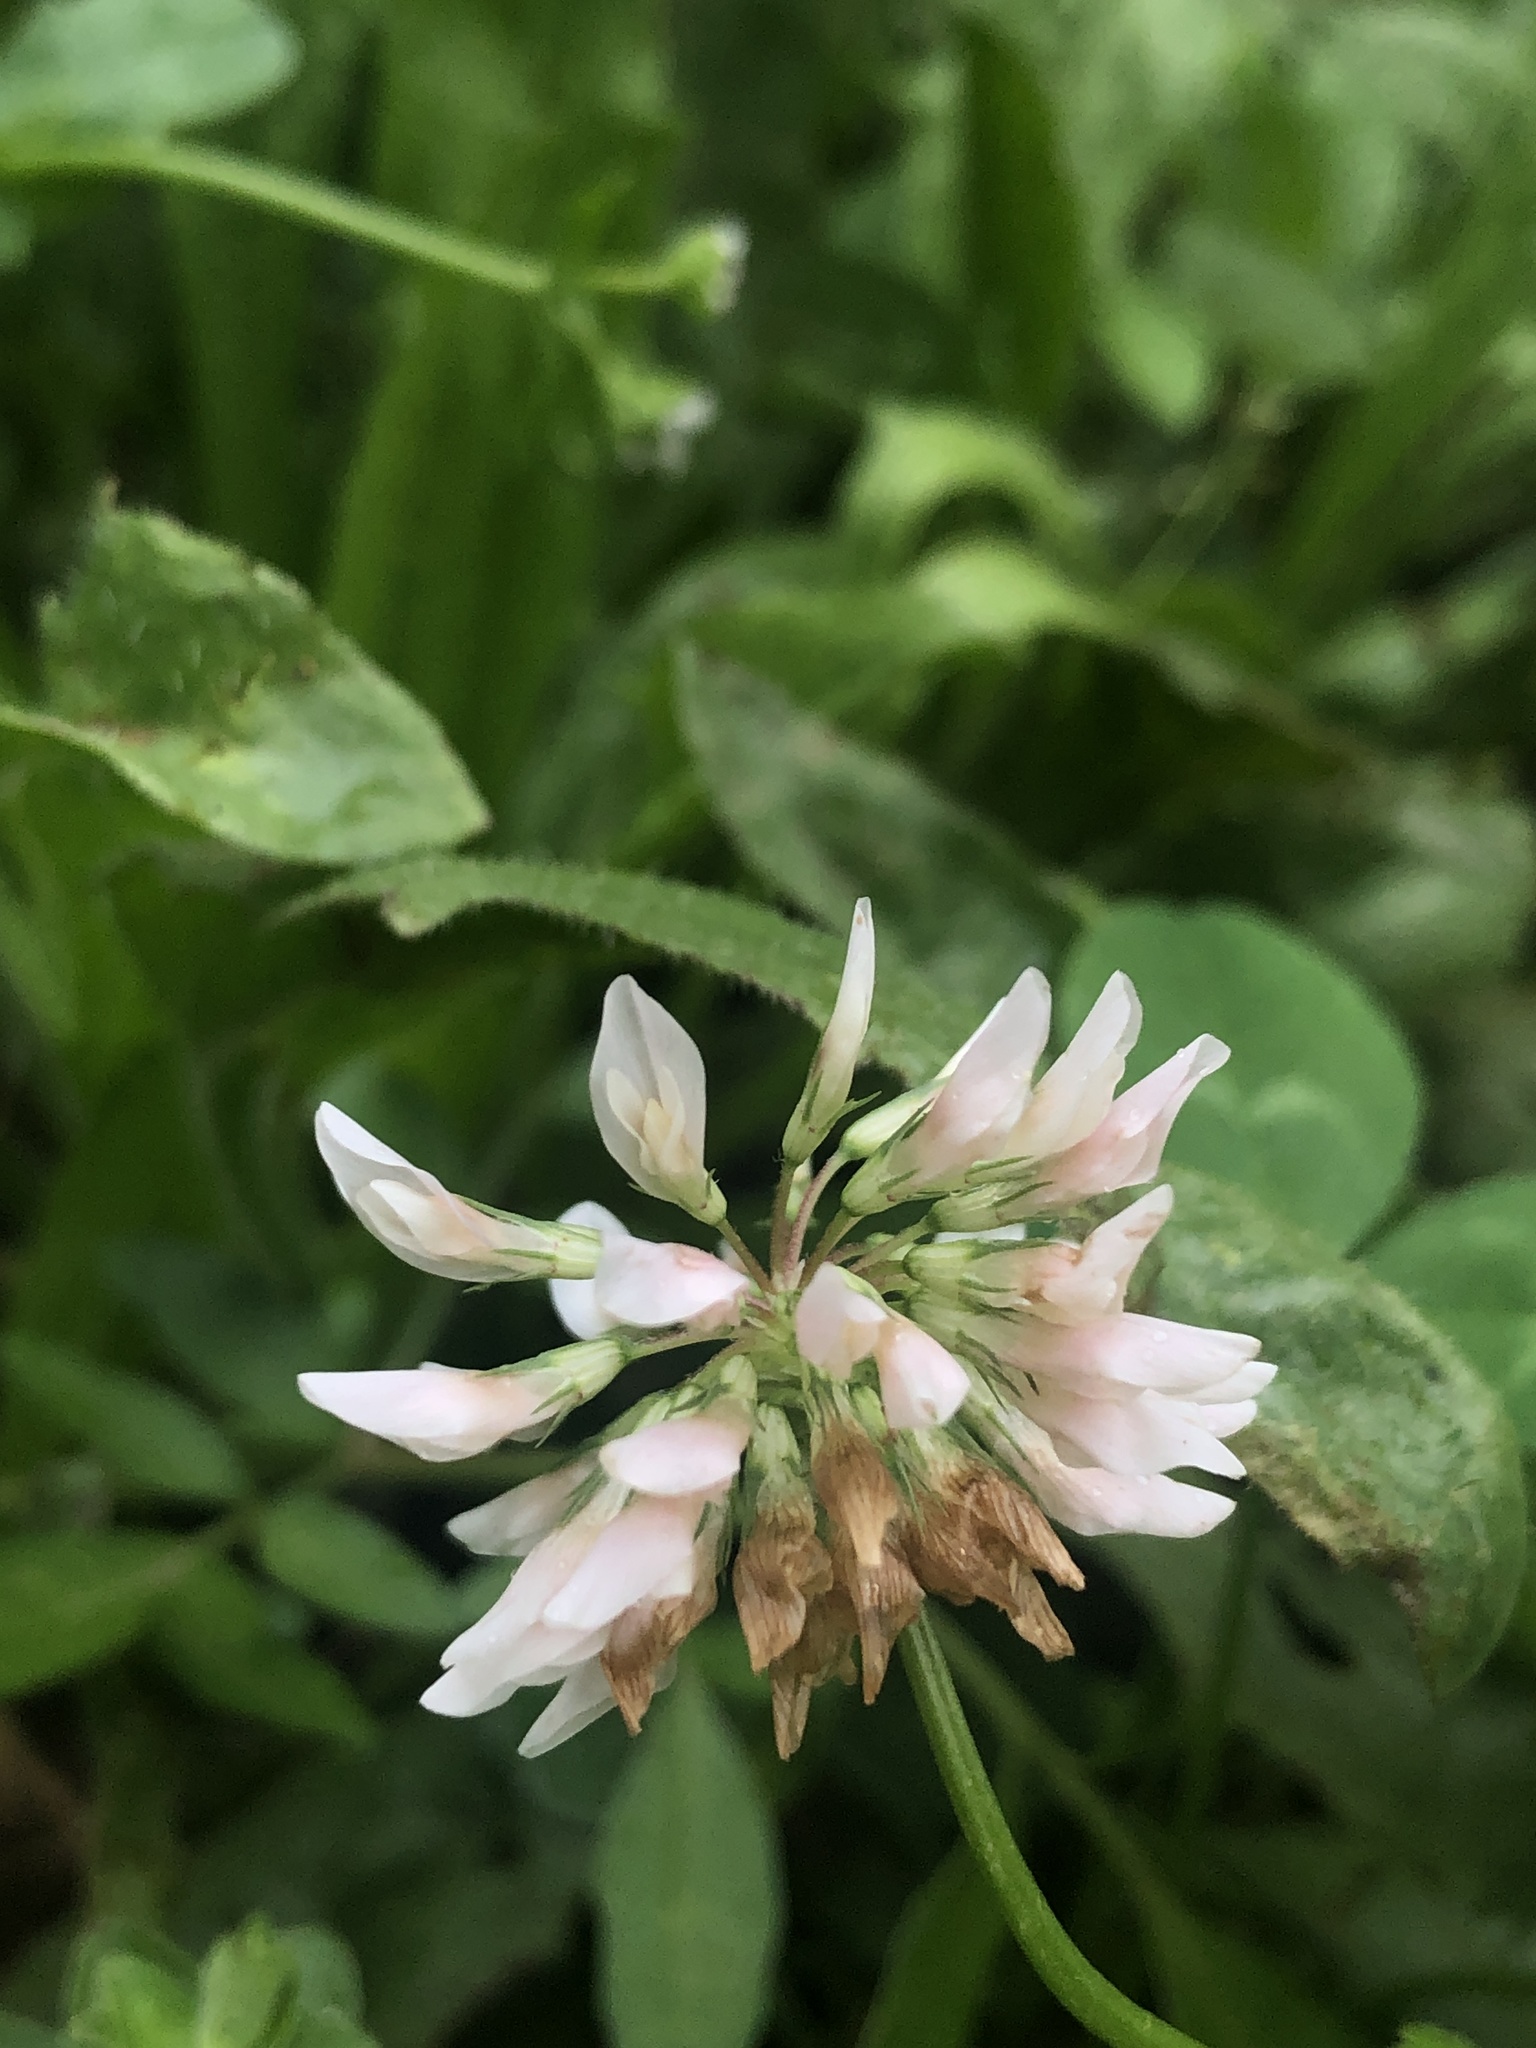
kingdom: Plantae
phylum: Tracheophyta
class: Magnoliopsida
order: Fabales
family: Fabaceae
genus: Trifolium
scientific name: Trifolium repens
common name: White clover
